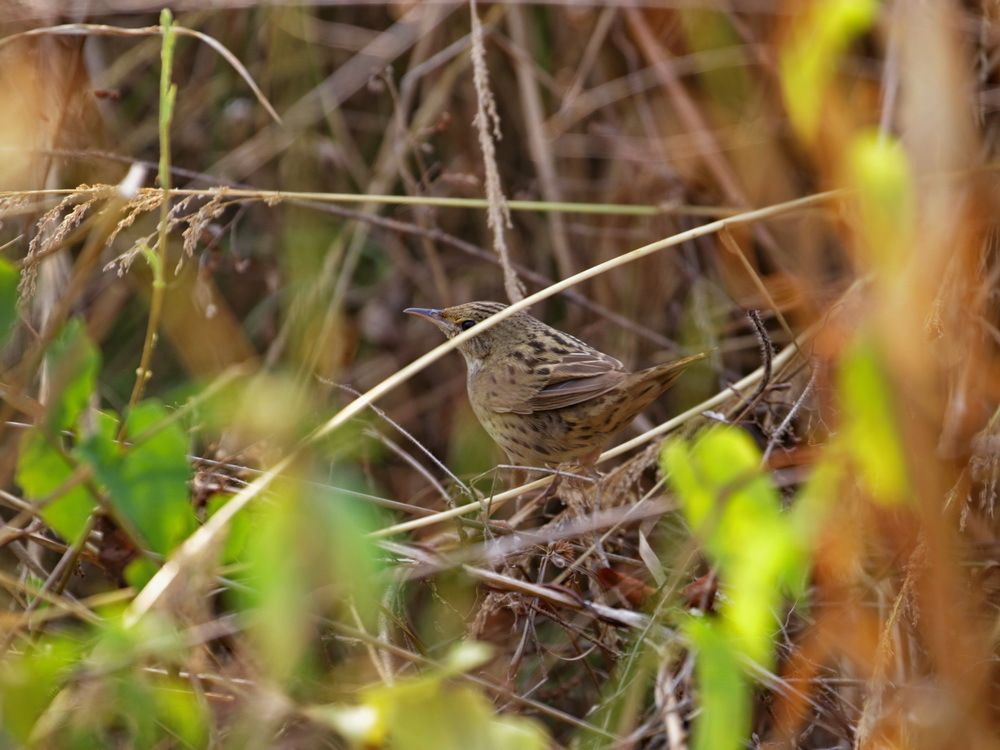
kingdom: Animalia
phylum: Chordata
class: Aves
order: Passeriformes
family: Locustellidae
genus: Locustella
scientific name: Locustella lanceolata
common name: Lanceolated warbler
